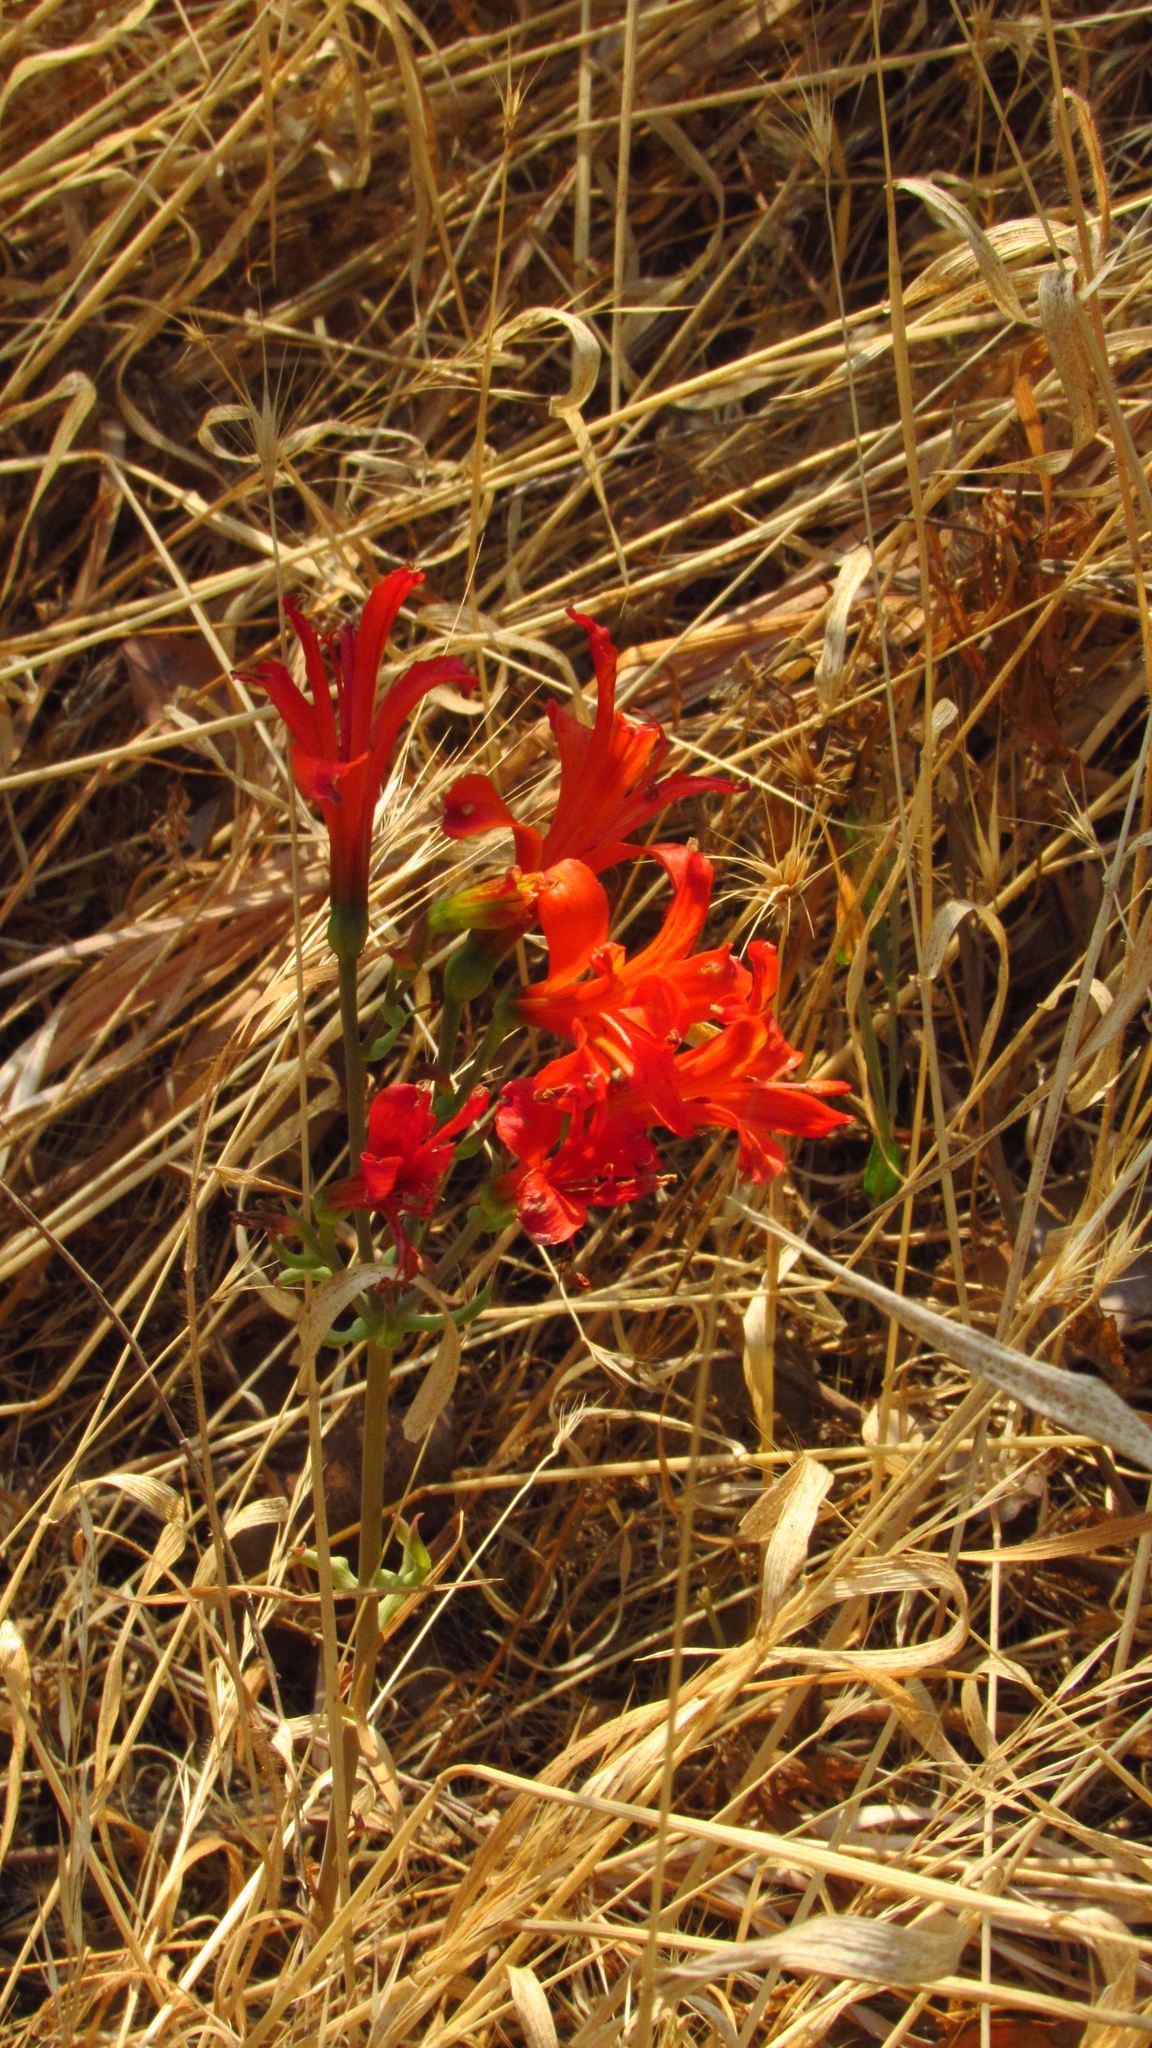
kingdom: Plantae
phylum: Tracheophyta
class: Liliopsida
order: Liliales
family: Alstroemeriaceae
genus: Alstroemeria
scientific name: Alstroemeria ligtu
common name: St. martin's-flower
